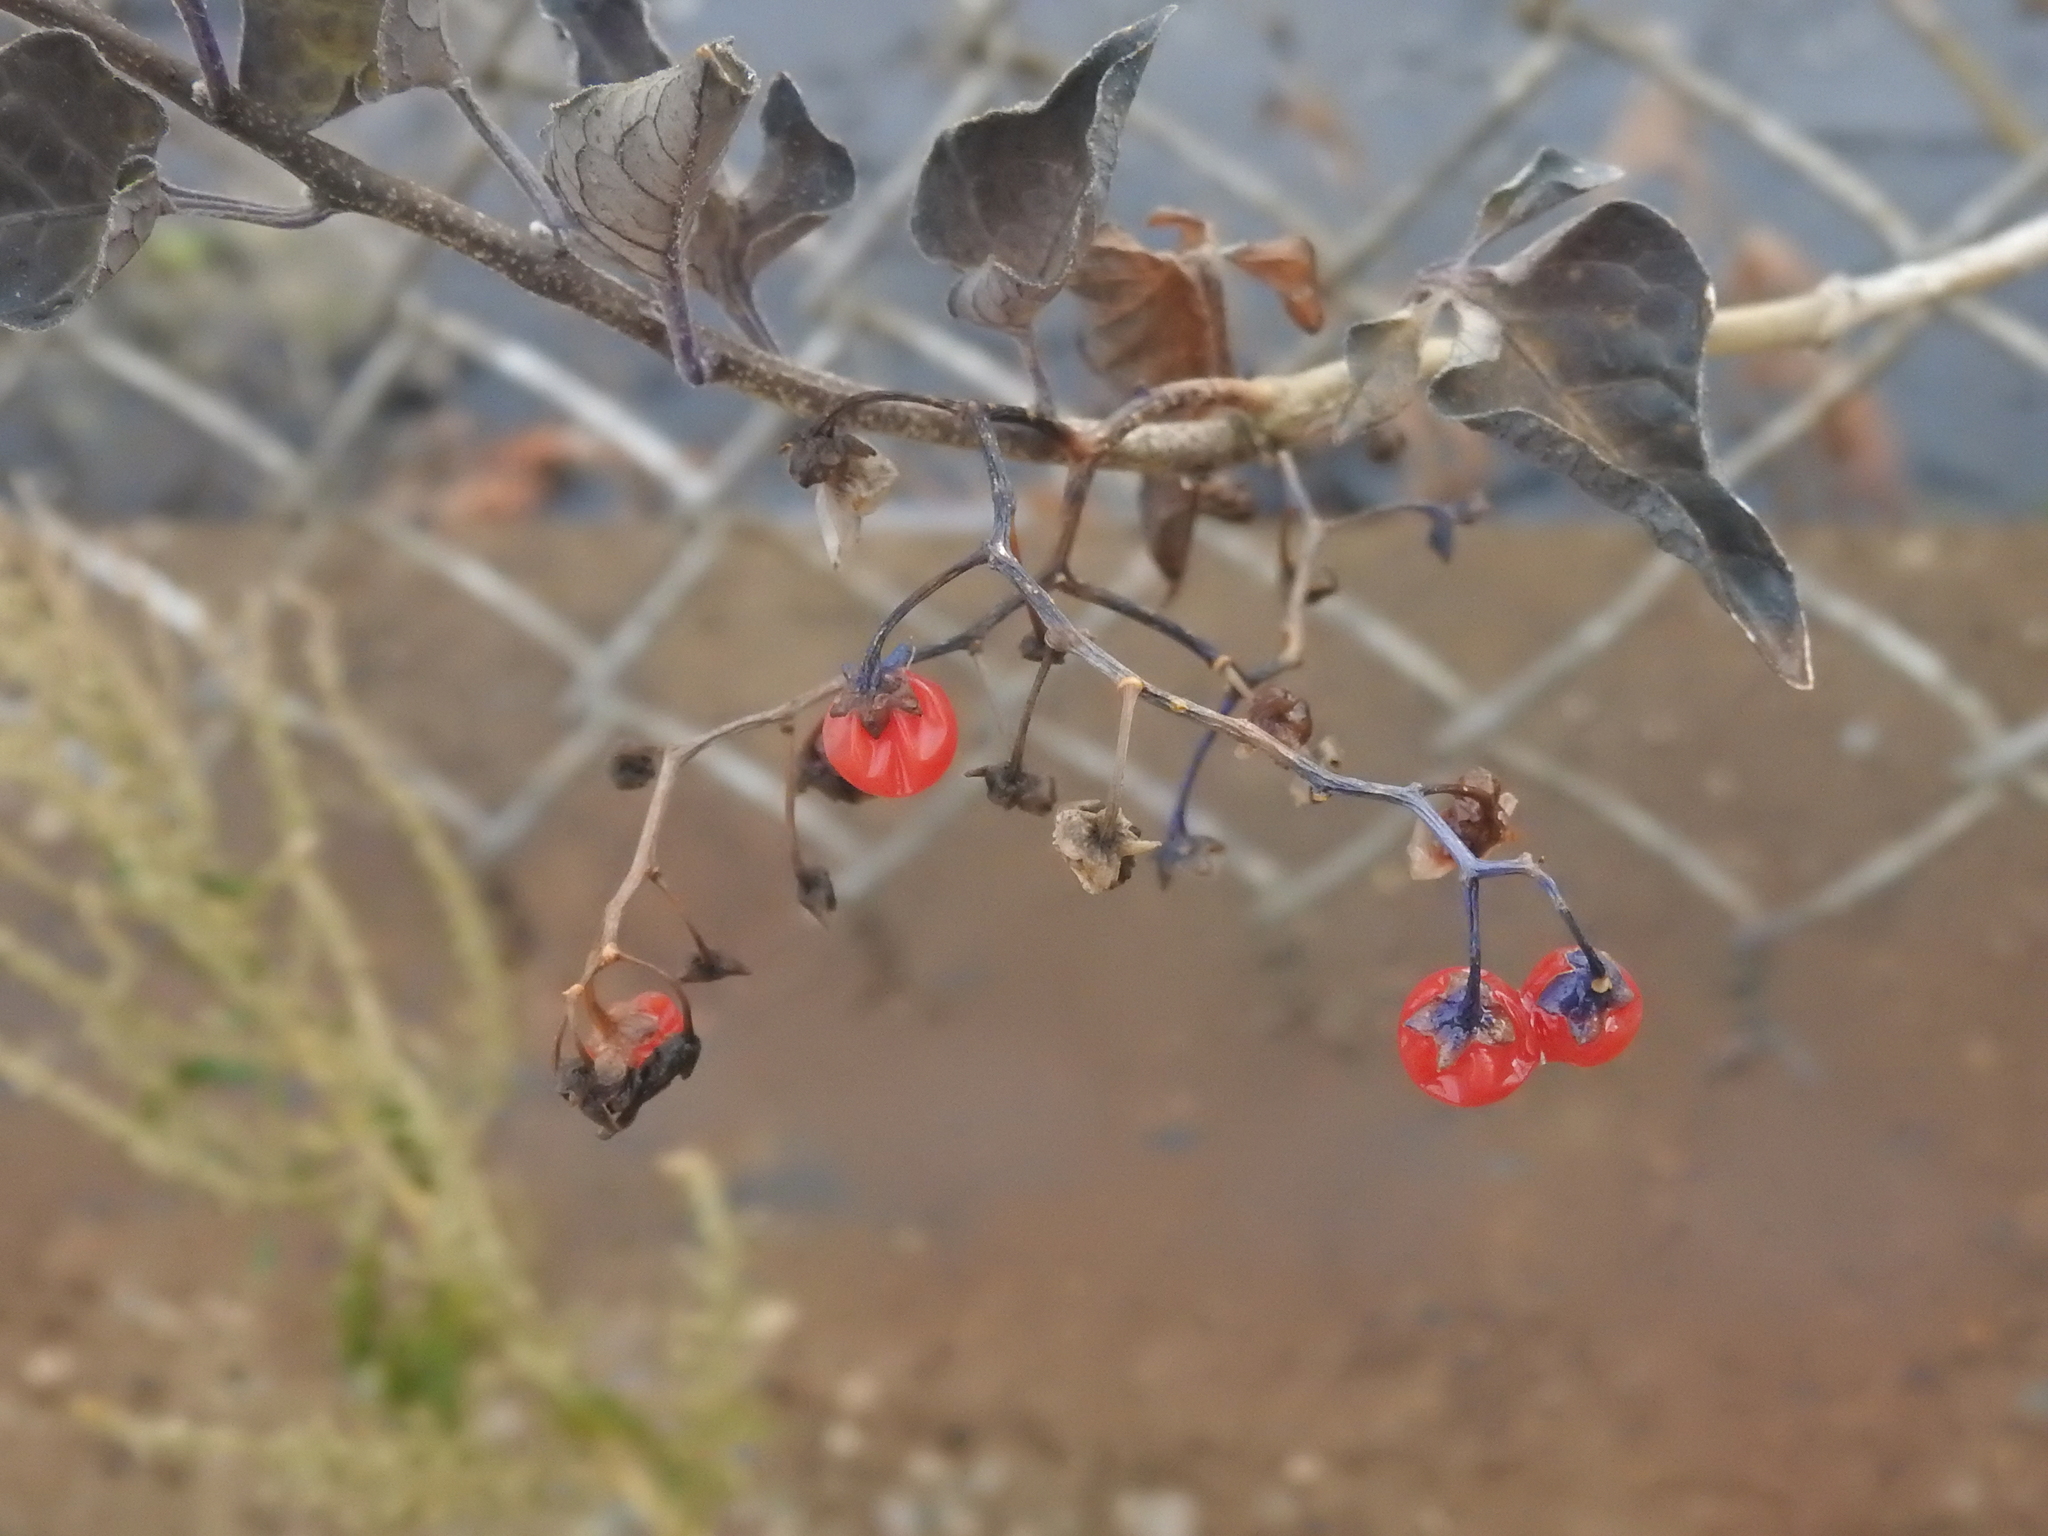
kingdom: Plantae
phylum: Tracheophyta
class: Magnoliopsida
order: Solanales
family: Solanaceae
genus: Solanum
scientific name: Solanum dulcamara
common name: Climbing nightshade
